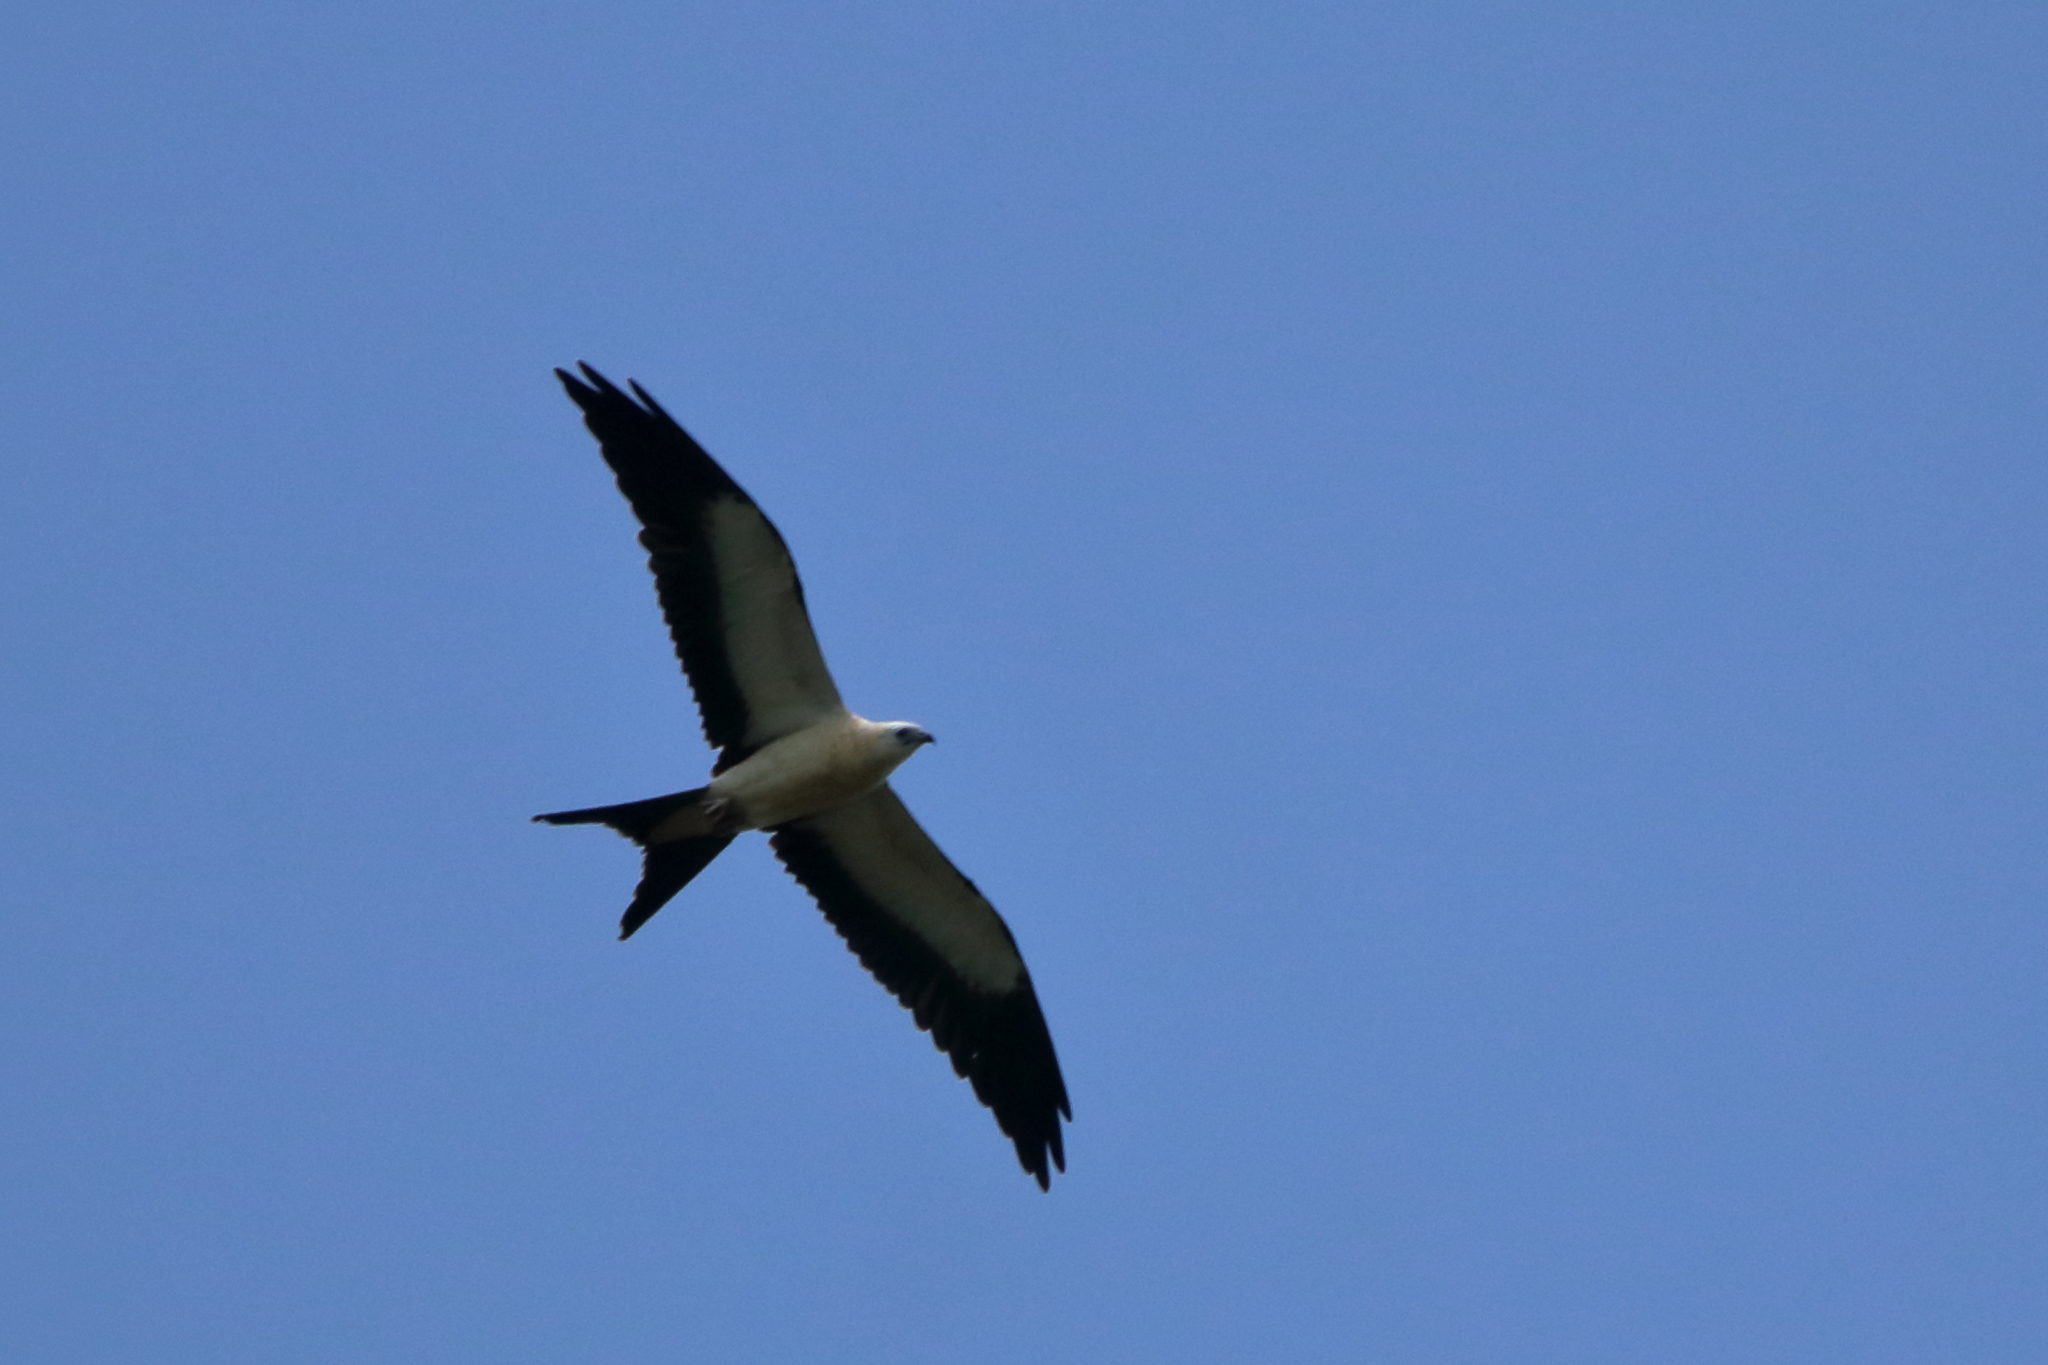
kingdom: Animalia
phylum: Chordata
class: Aves
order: Accipitriformes
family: Accipitridae
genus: Elanoides
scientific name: Elanoides forficatus
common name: Swallow-tailed kite
